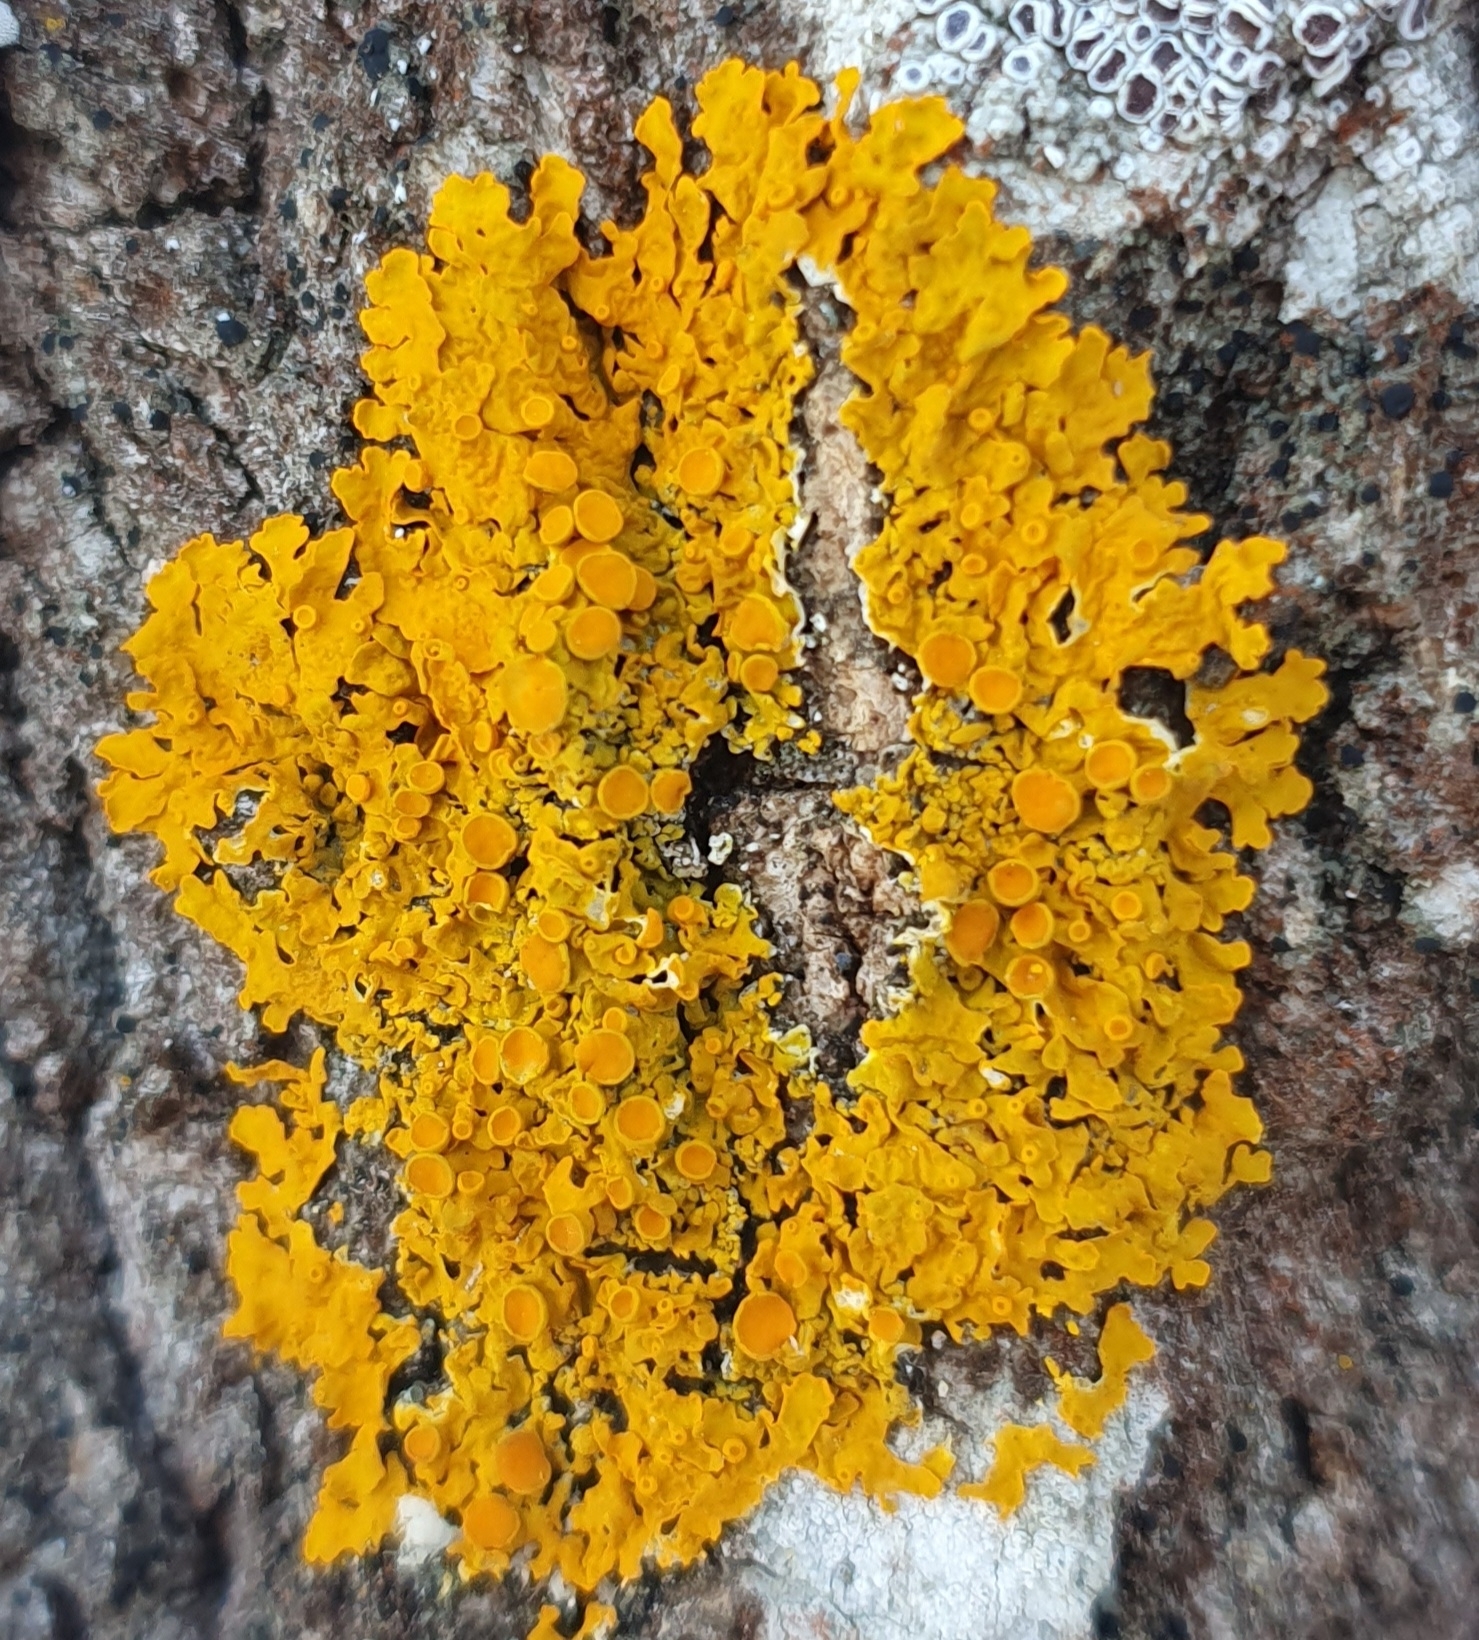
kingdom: Fungi
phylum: Ascomycota
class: Lecanoromycetes
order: Teloschistales
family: Teloschistaceae
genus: Xanthoria
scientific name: Xanthoria parietina
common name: Common orange lichen
